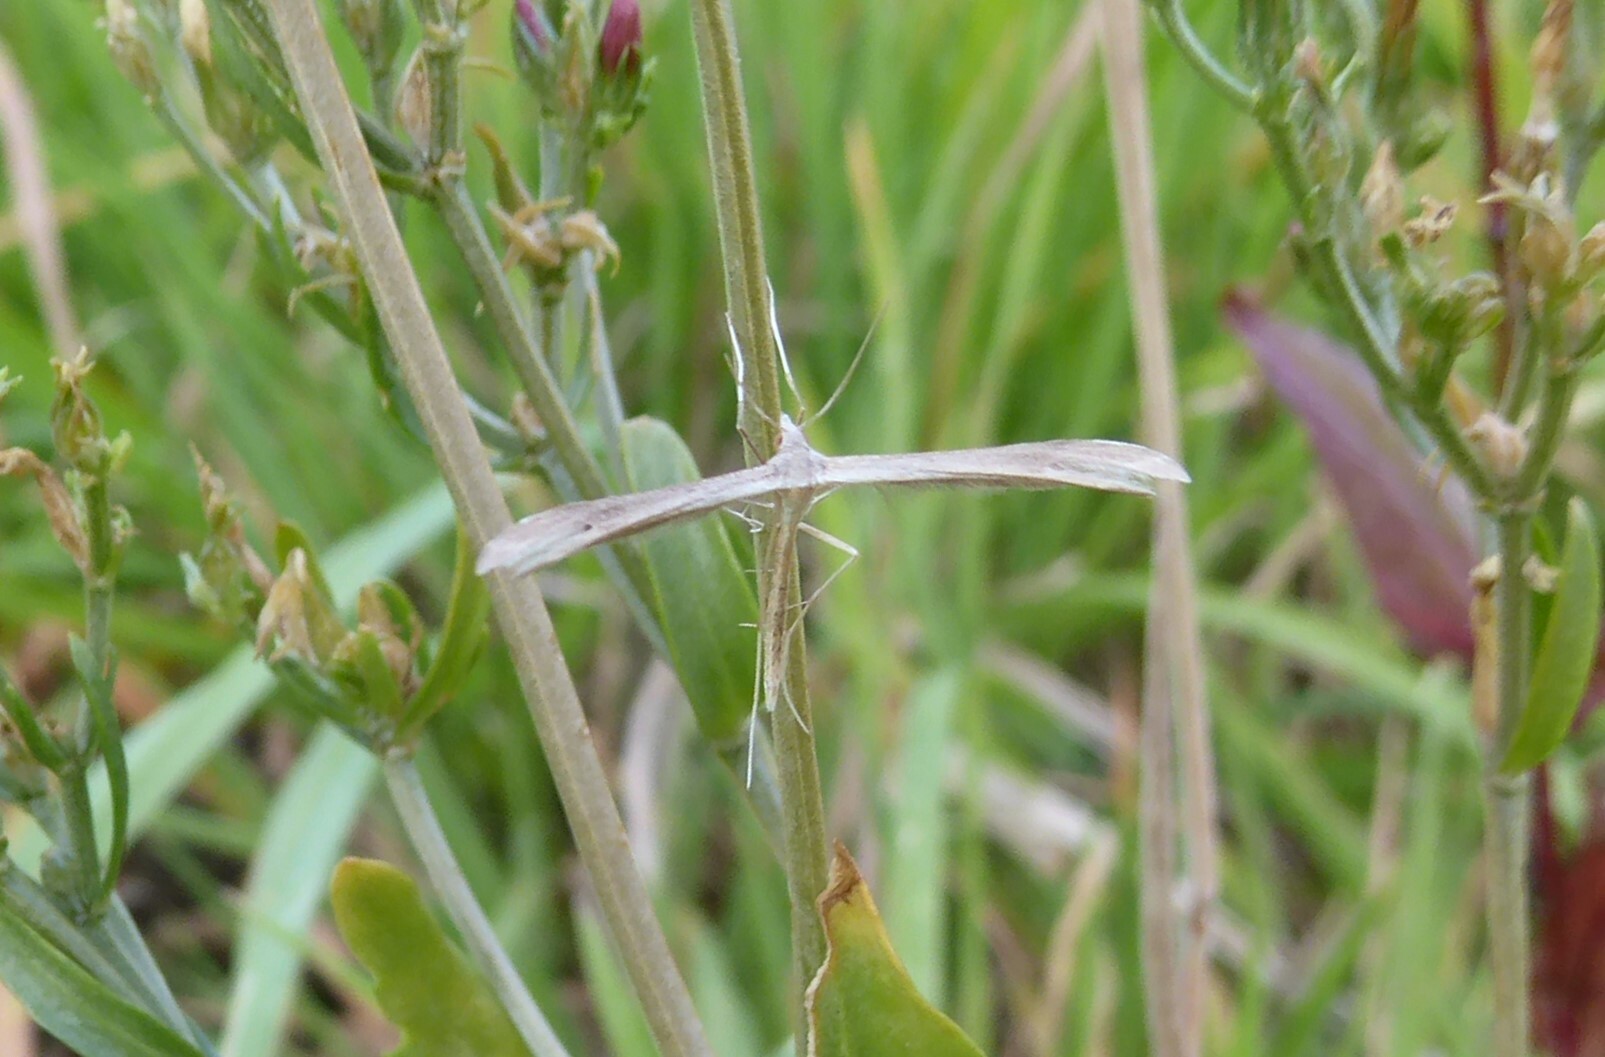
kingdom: Animalia
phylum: Arthropoda
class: Insecta
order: Lepidoptera
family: Pterophoridae
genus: Stenoptilia
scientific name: Stenoptilia zophodactylus
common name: Dowdy plume
